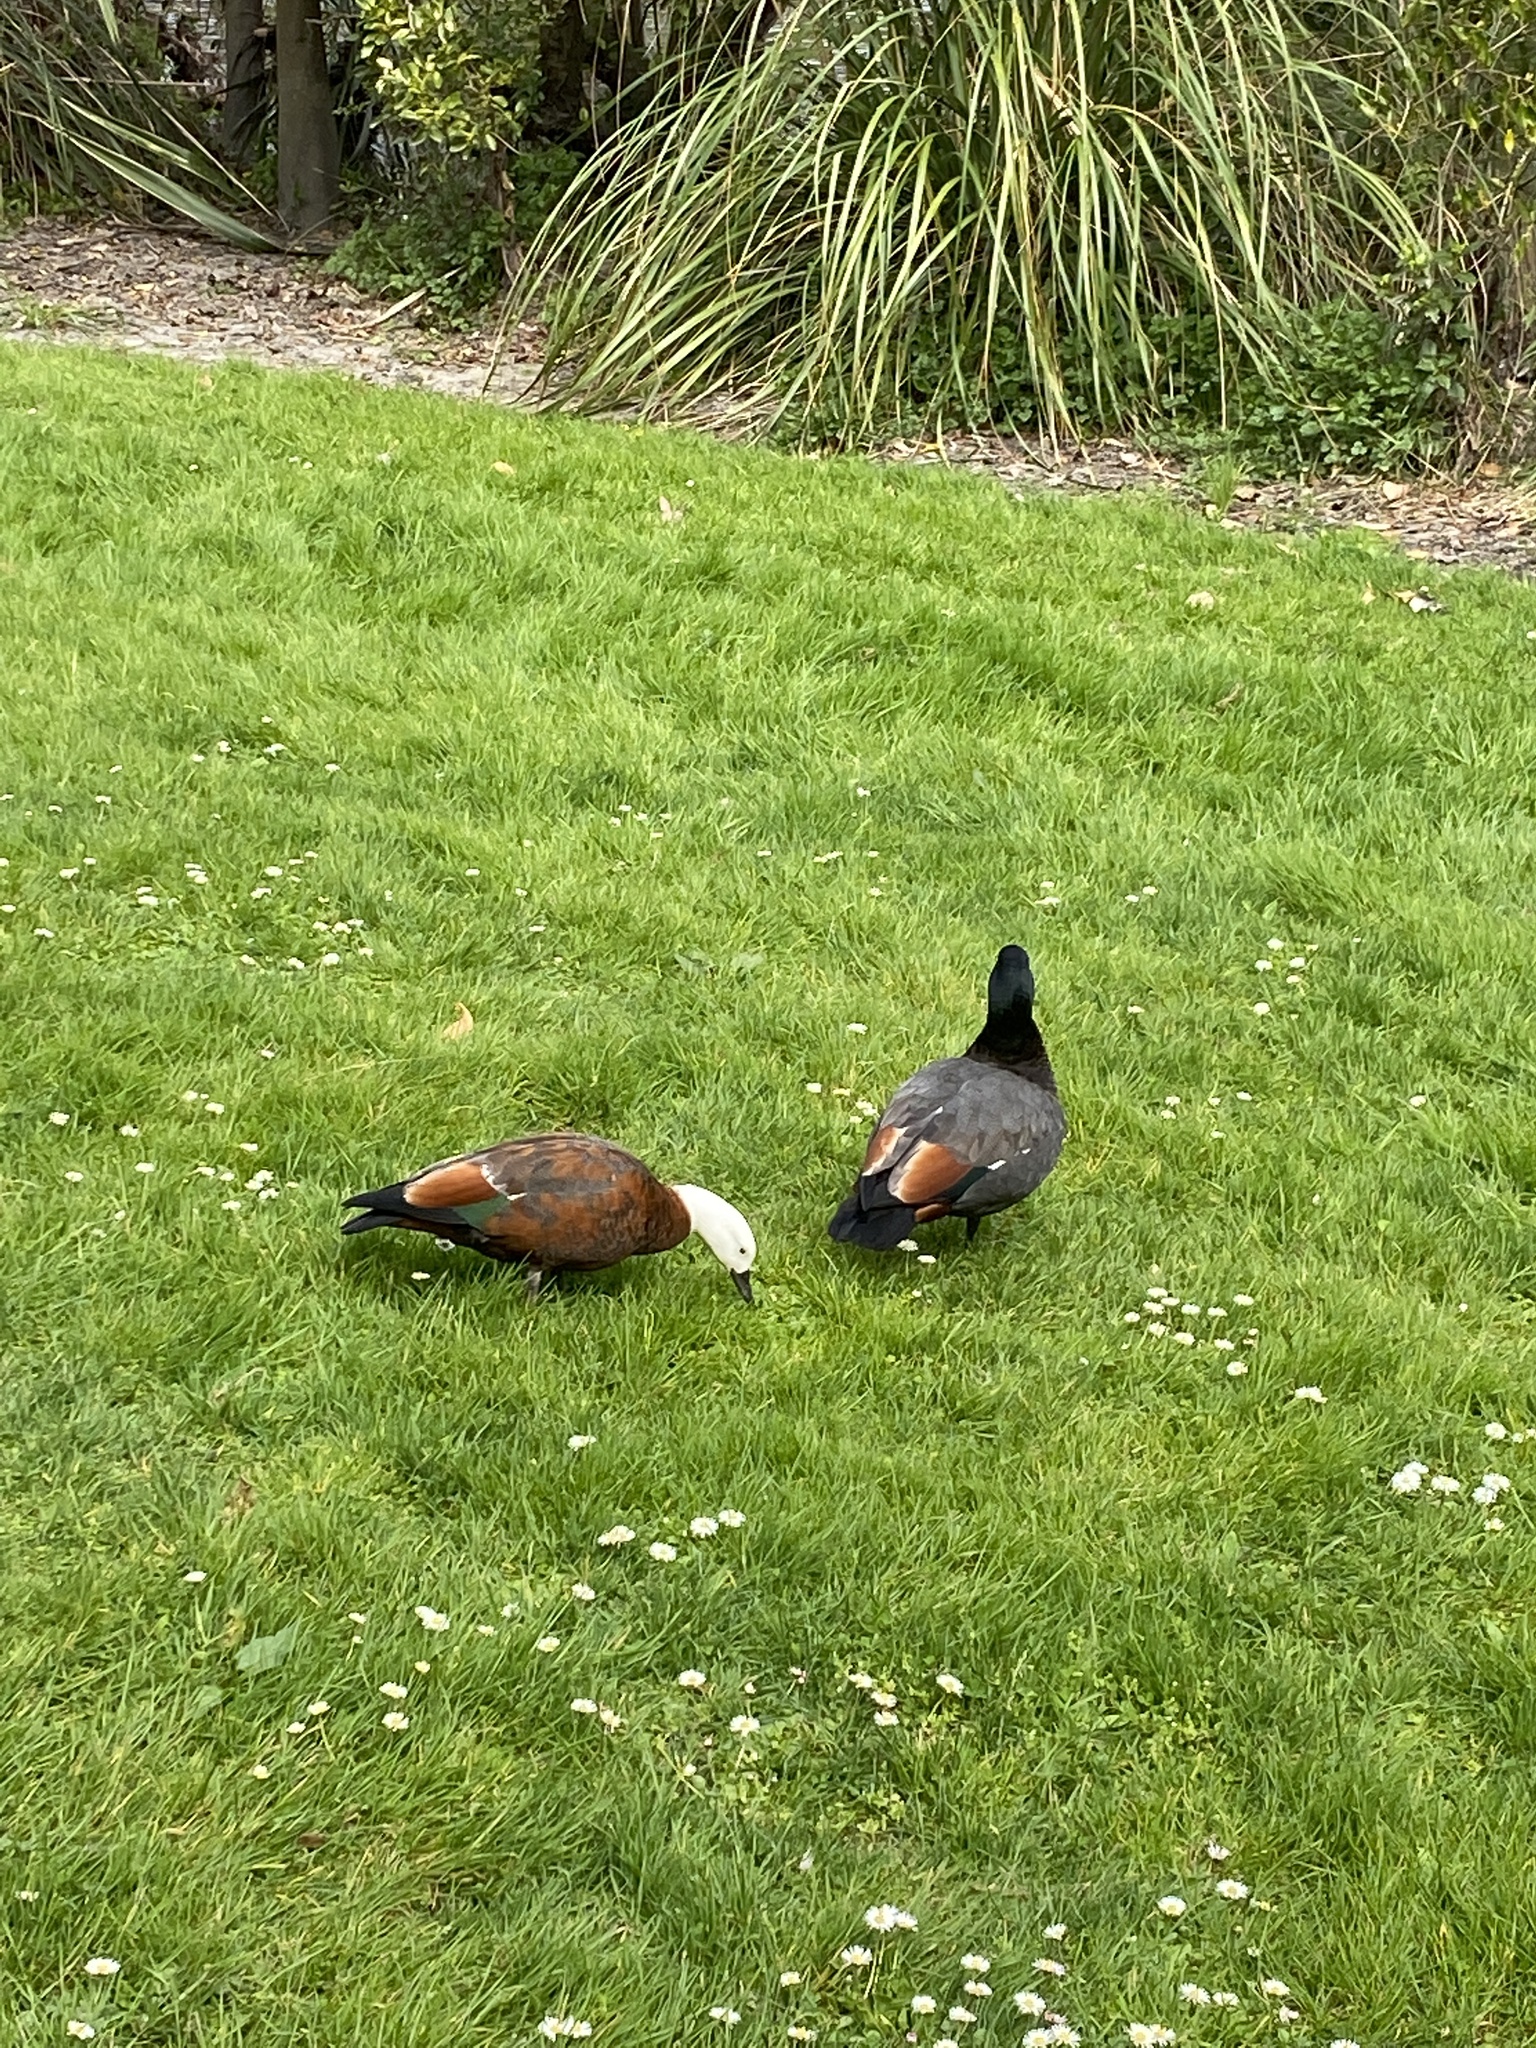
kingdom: Animalia
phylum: Chordata
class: Aves
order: Anseriformes
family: Anatidae
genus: Tadorna
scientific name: Tadorna variegata
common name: Paradise shelduck
